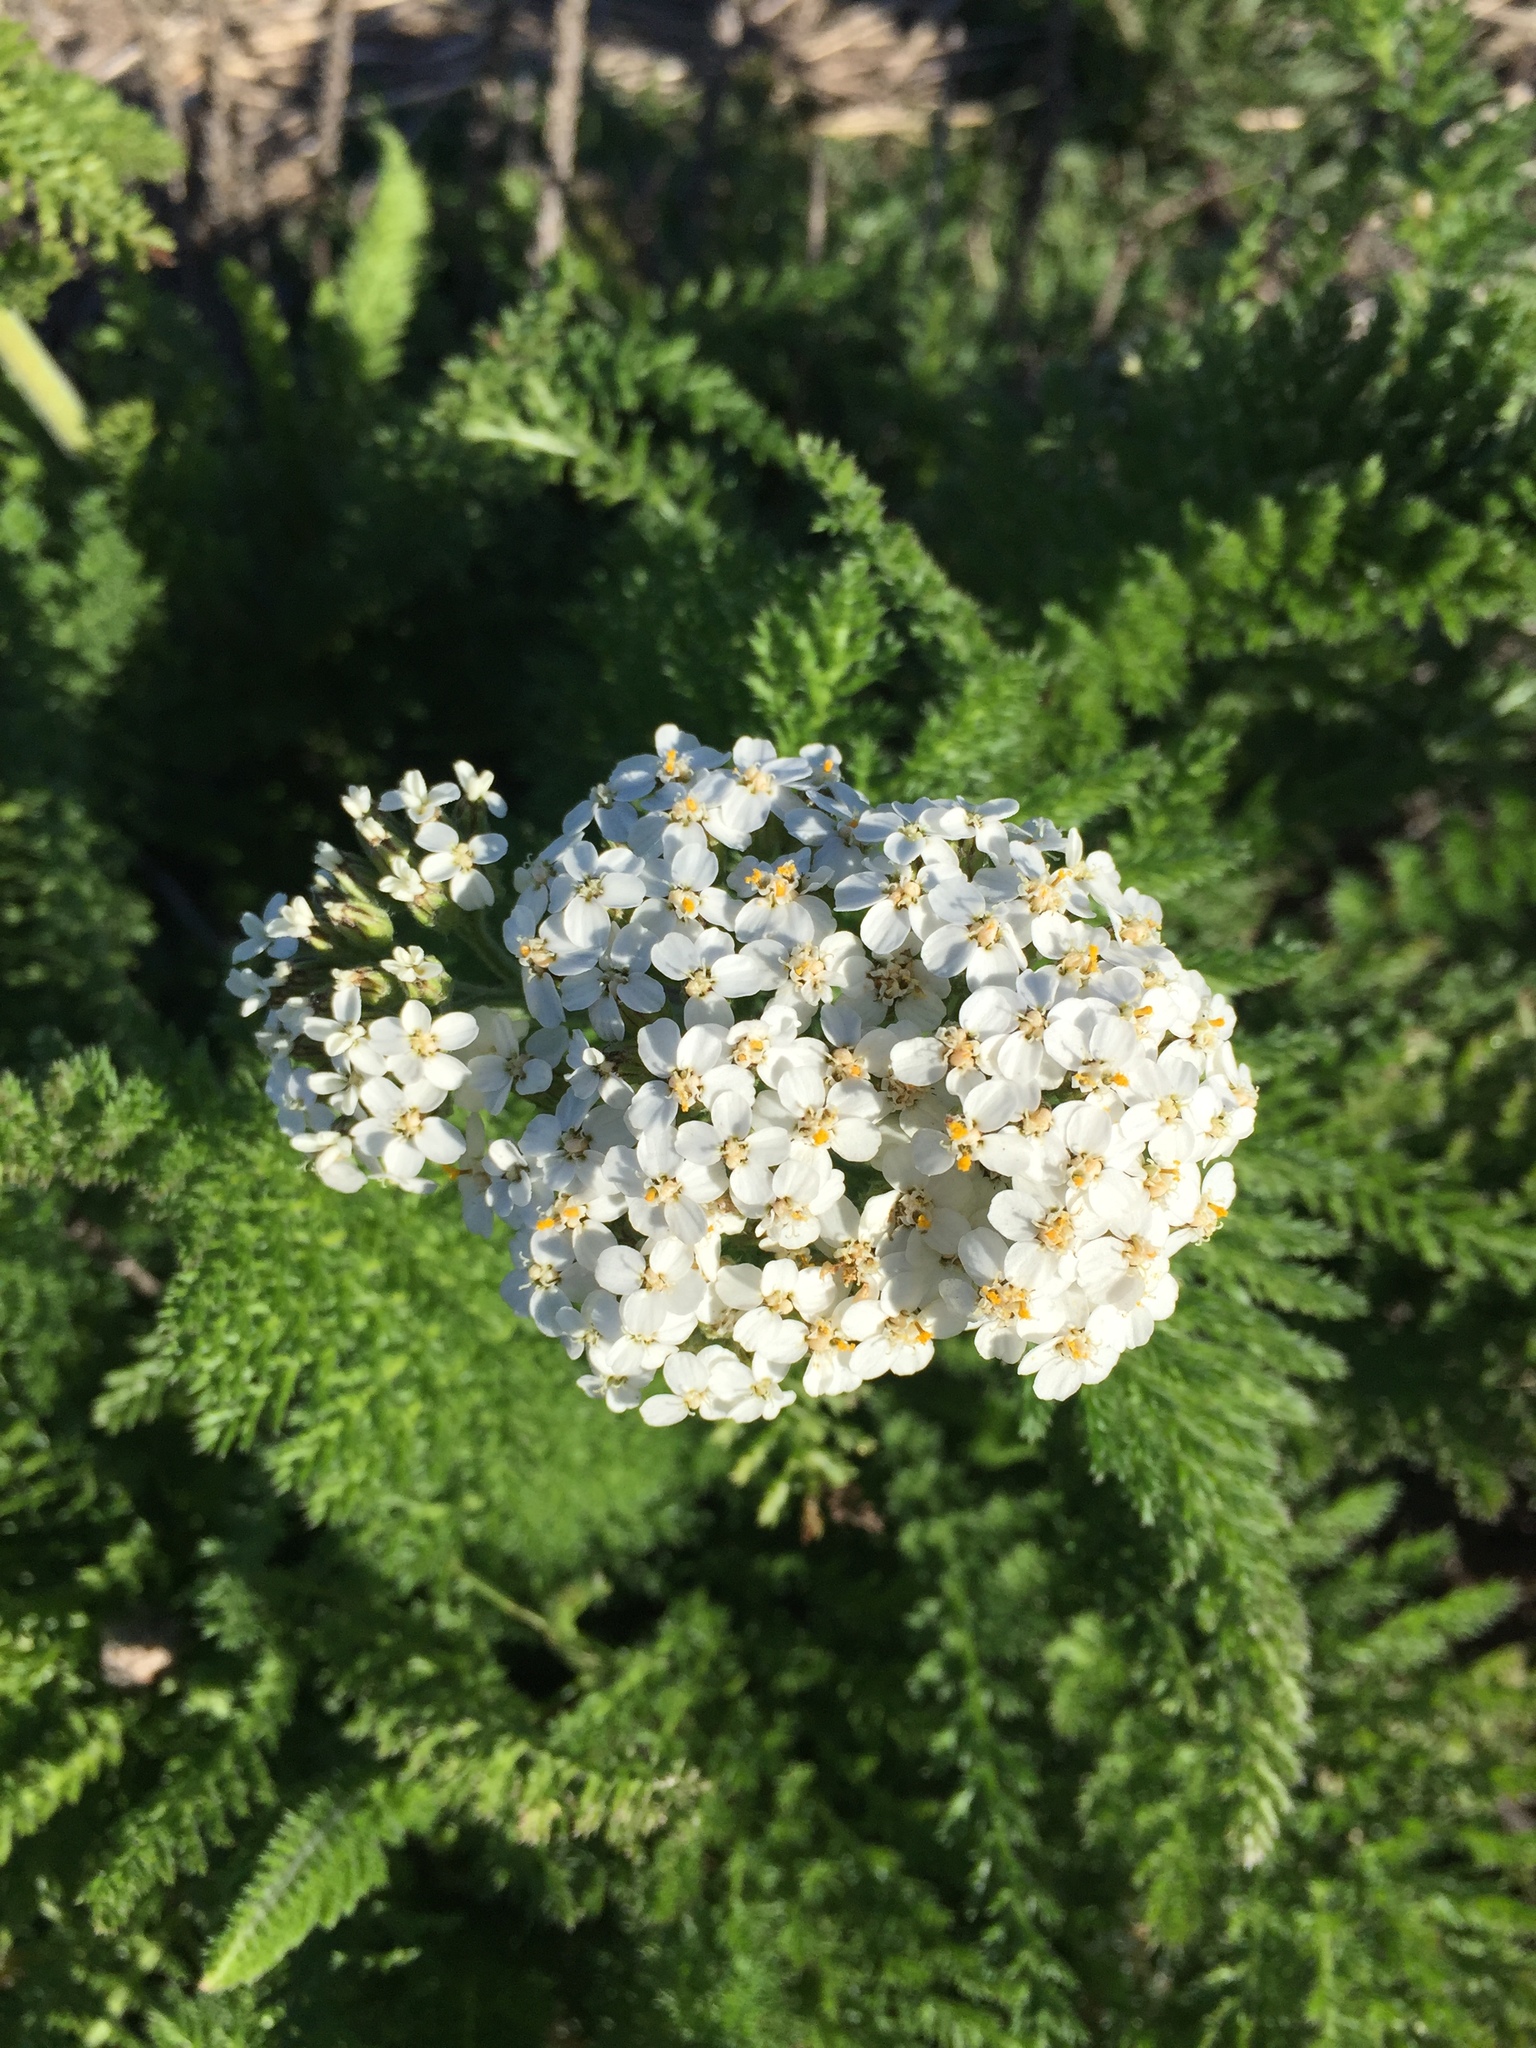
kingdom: Plantae
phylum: Tracheophyta
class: Magnoliopsida
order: Asterales
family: Asteraceae
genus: Achillea
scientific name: Achillea millefolium
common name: Yarrow
